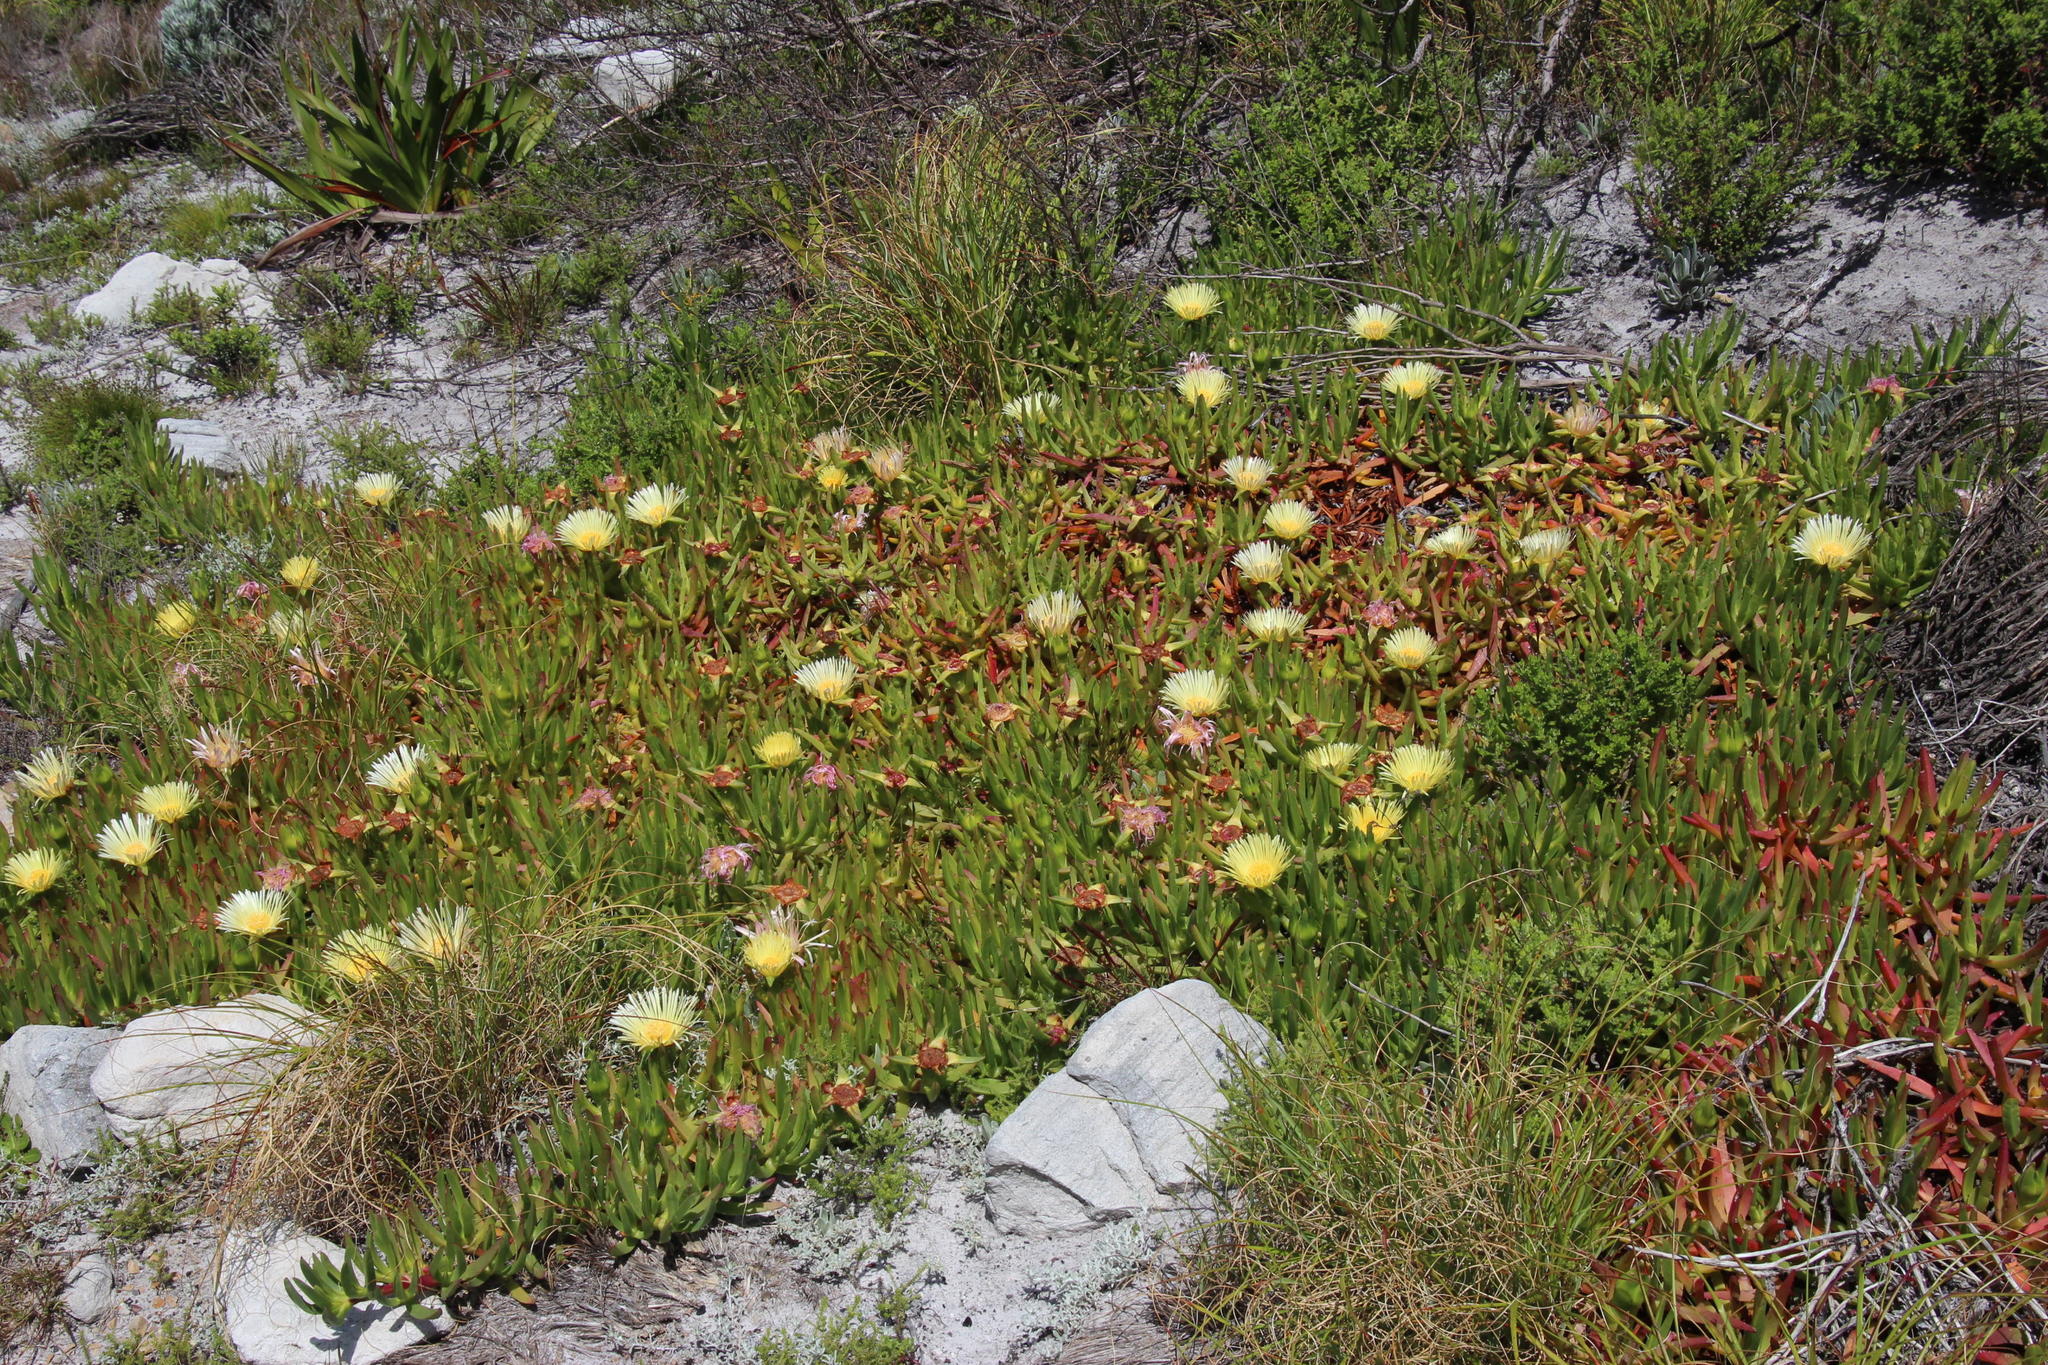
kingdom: Plantae
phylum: Tracheophyta
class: Magnoliopsida
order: Caryophyllales
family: Aizoaceae
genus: Carpobrotus
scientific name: Carpobrotus edulis
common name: Hottentot-fig
